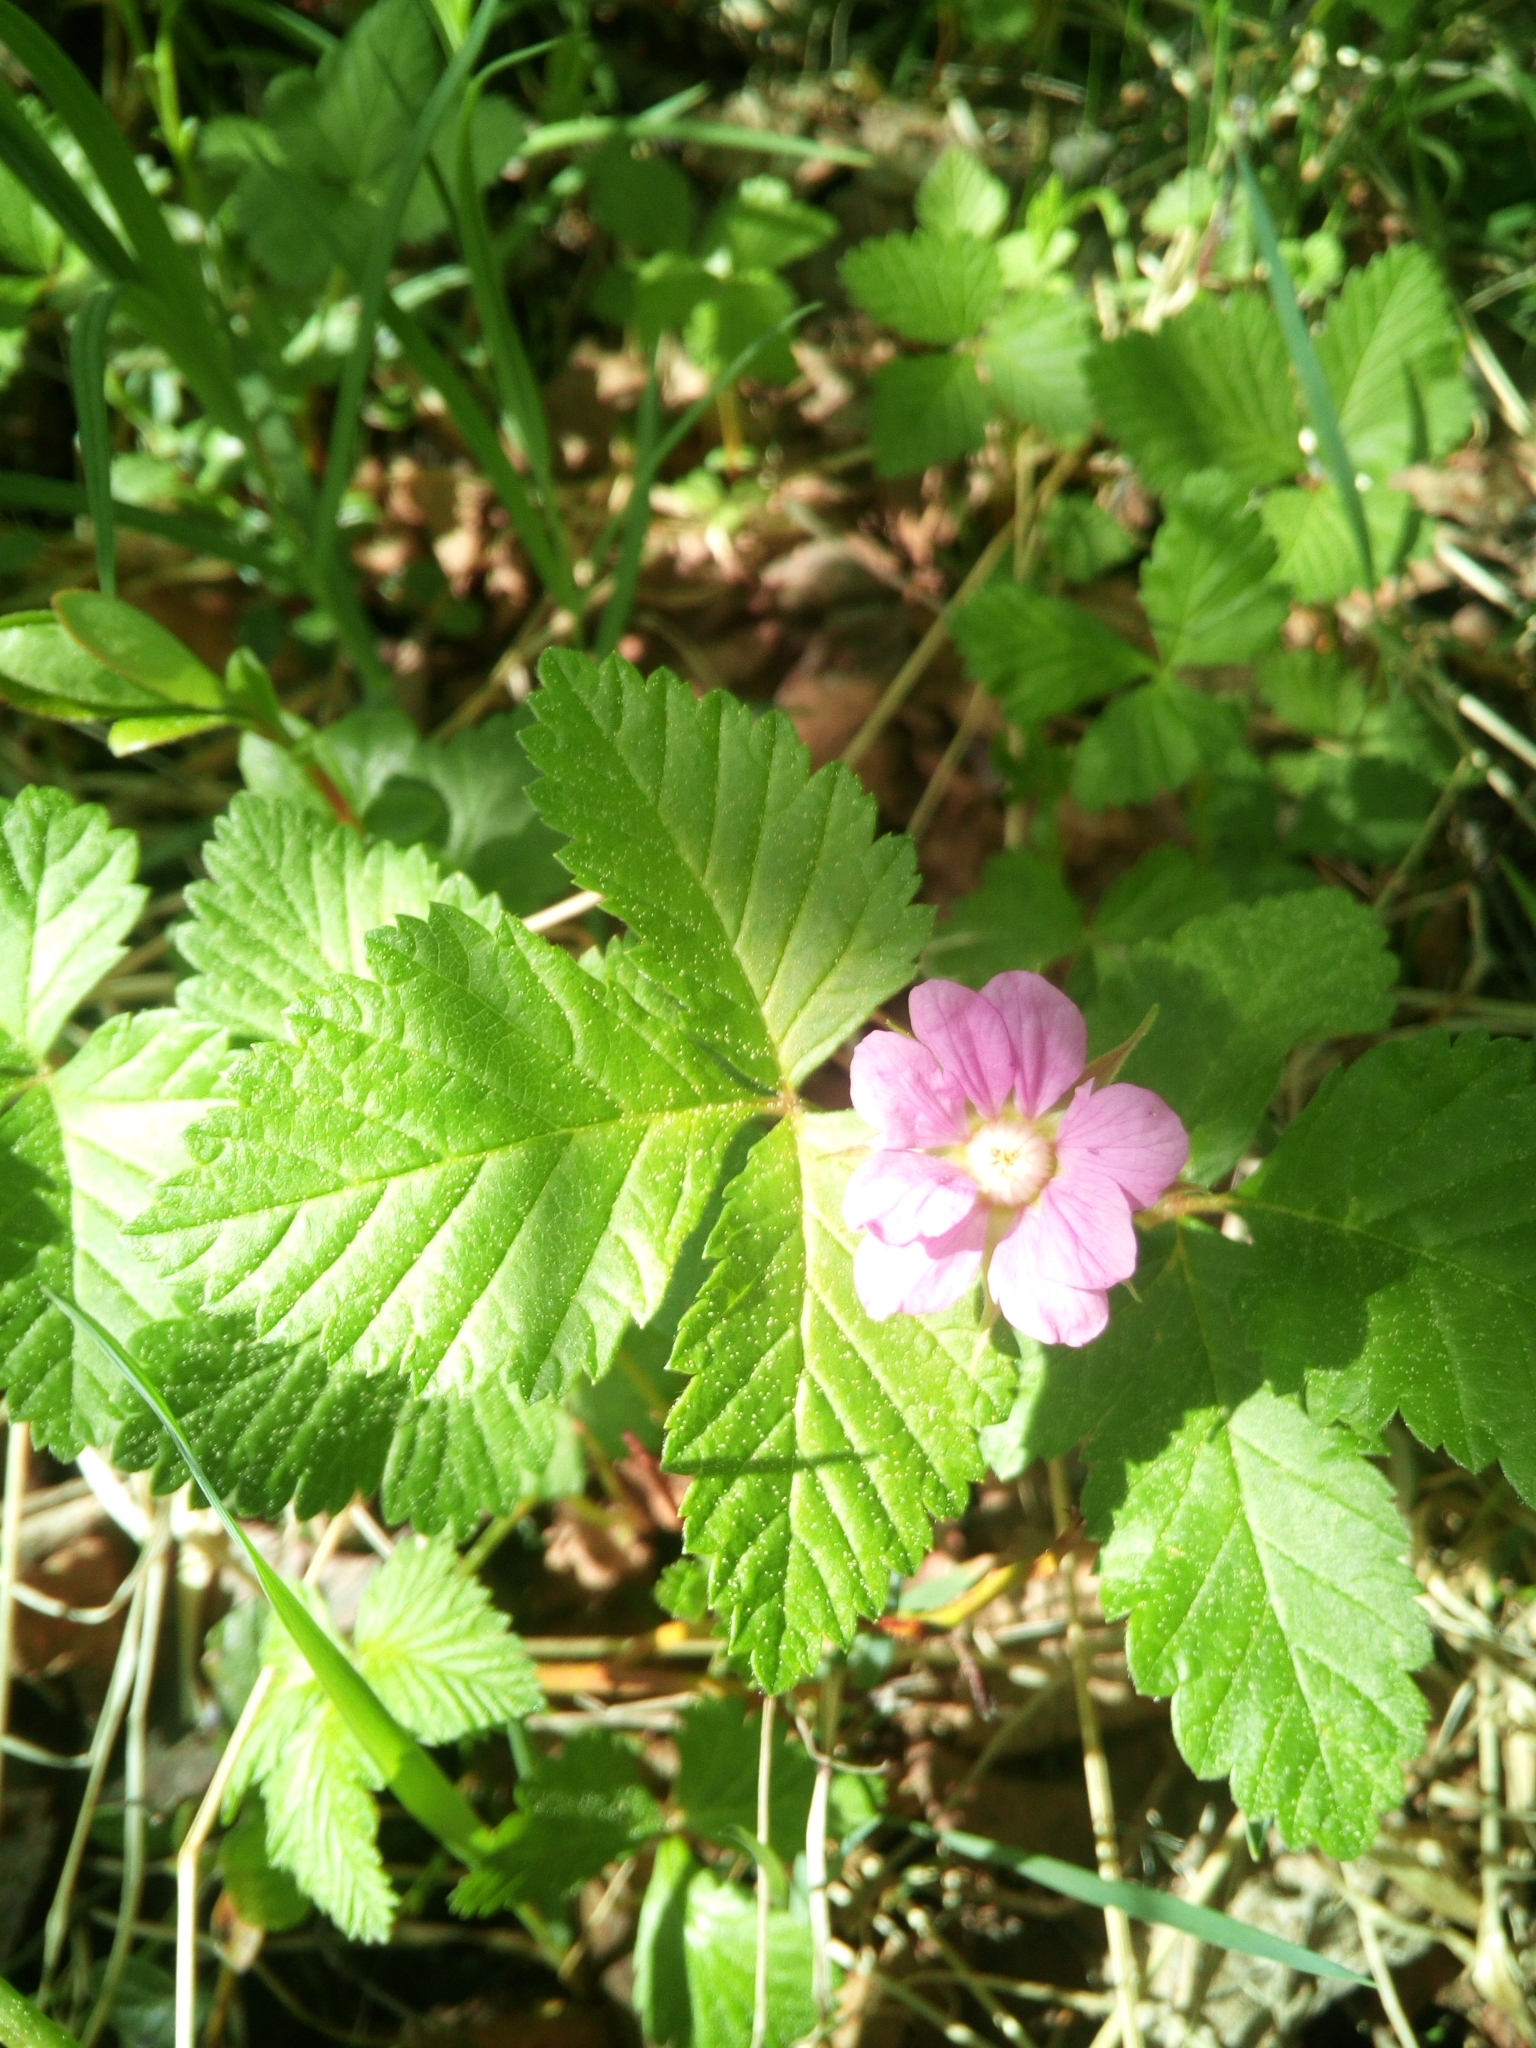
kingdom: Plantae
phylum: Tracheophyta
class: Magnoliopsida
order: Rosales
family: Rosaceae
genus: Rubus
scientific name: Rubus arcticus
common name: Arctic bramble
